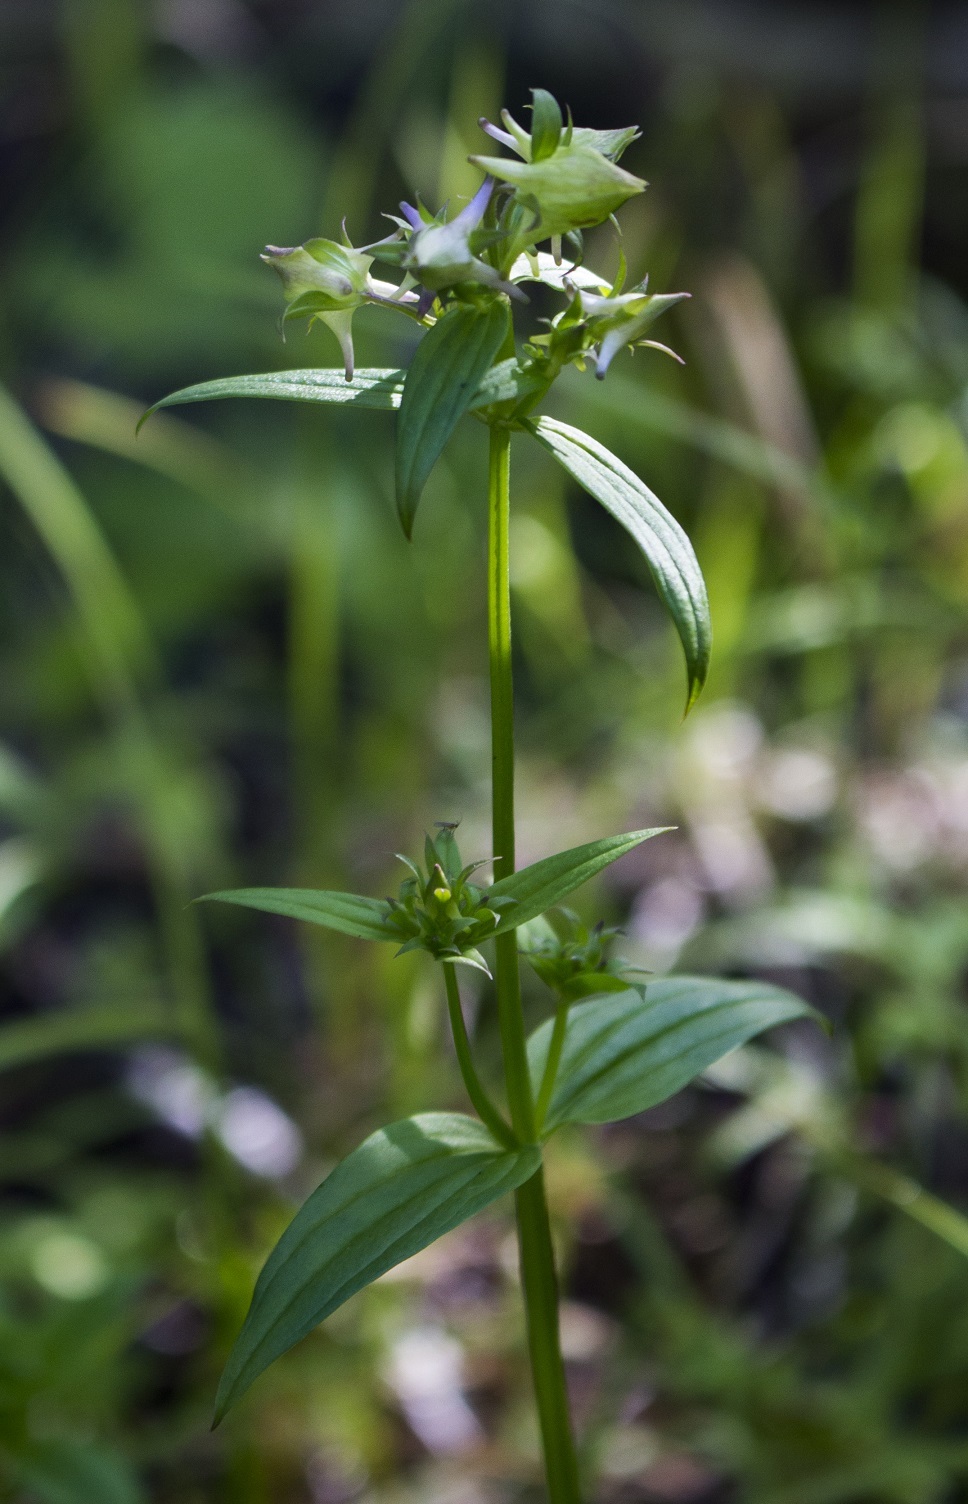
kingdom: Plantae
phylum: Tracheophyta
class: Magnoliopsida
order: Gentianales
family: Gentianaceae
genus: Halenia
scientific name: Halenia deflexa
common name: American spurred gentian
